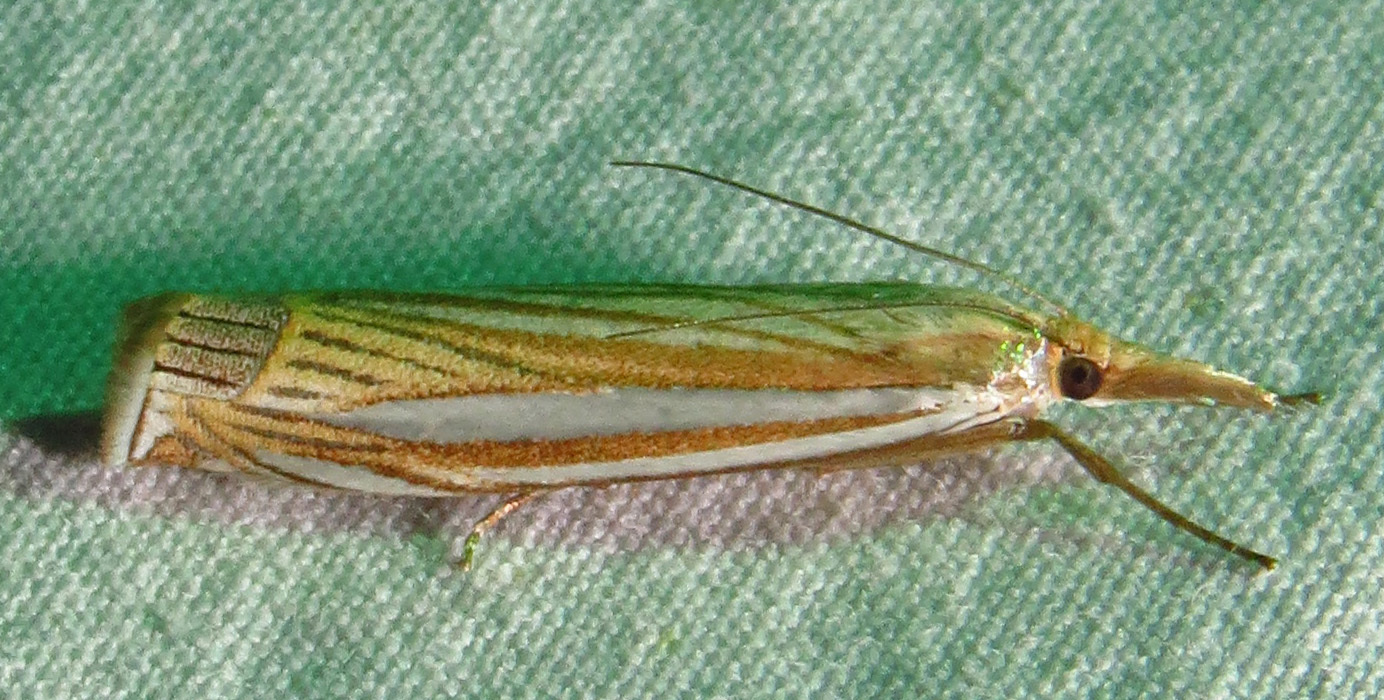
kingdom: Animalia
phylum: Arthropoda
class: Insecta
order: Lepidoptera
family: Crambidae
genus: Crambus
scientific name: Crambus laqueatellus
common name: Eastern grass-veneer
